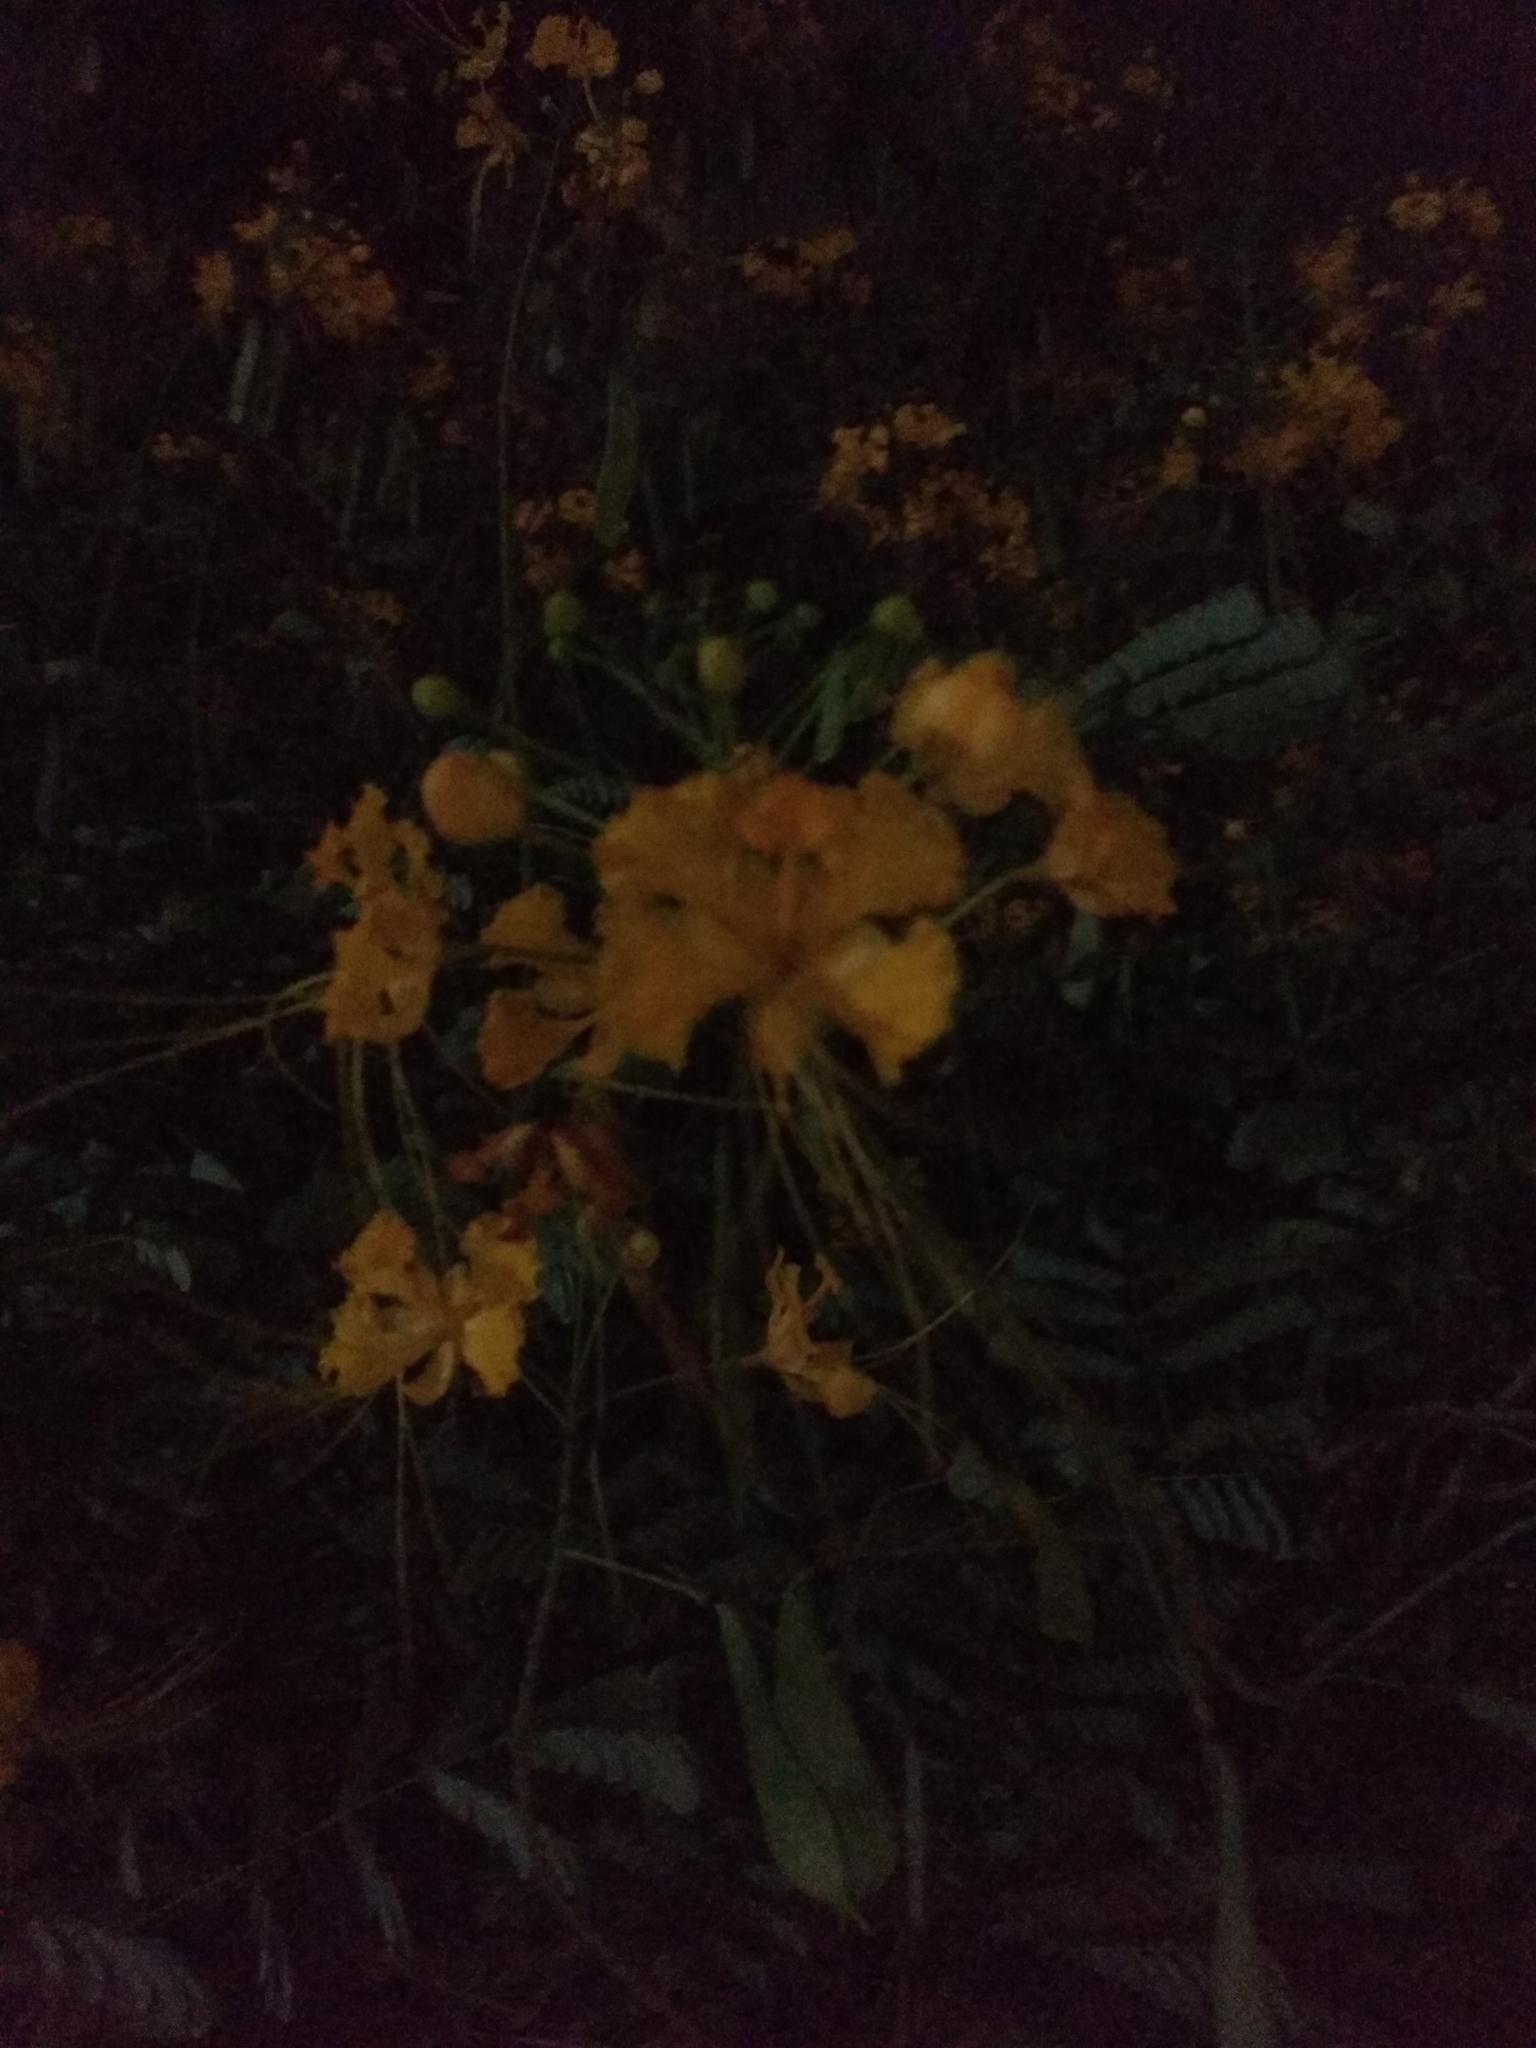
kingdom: Plantae
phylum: Tracheophyta
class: Magnoliopsida
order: Fabales
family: Fabaceae
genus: Caesalpinia
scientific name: Caesalpinia pulcherrima
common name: Pride-of-barbados
